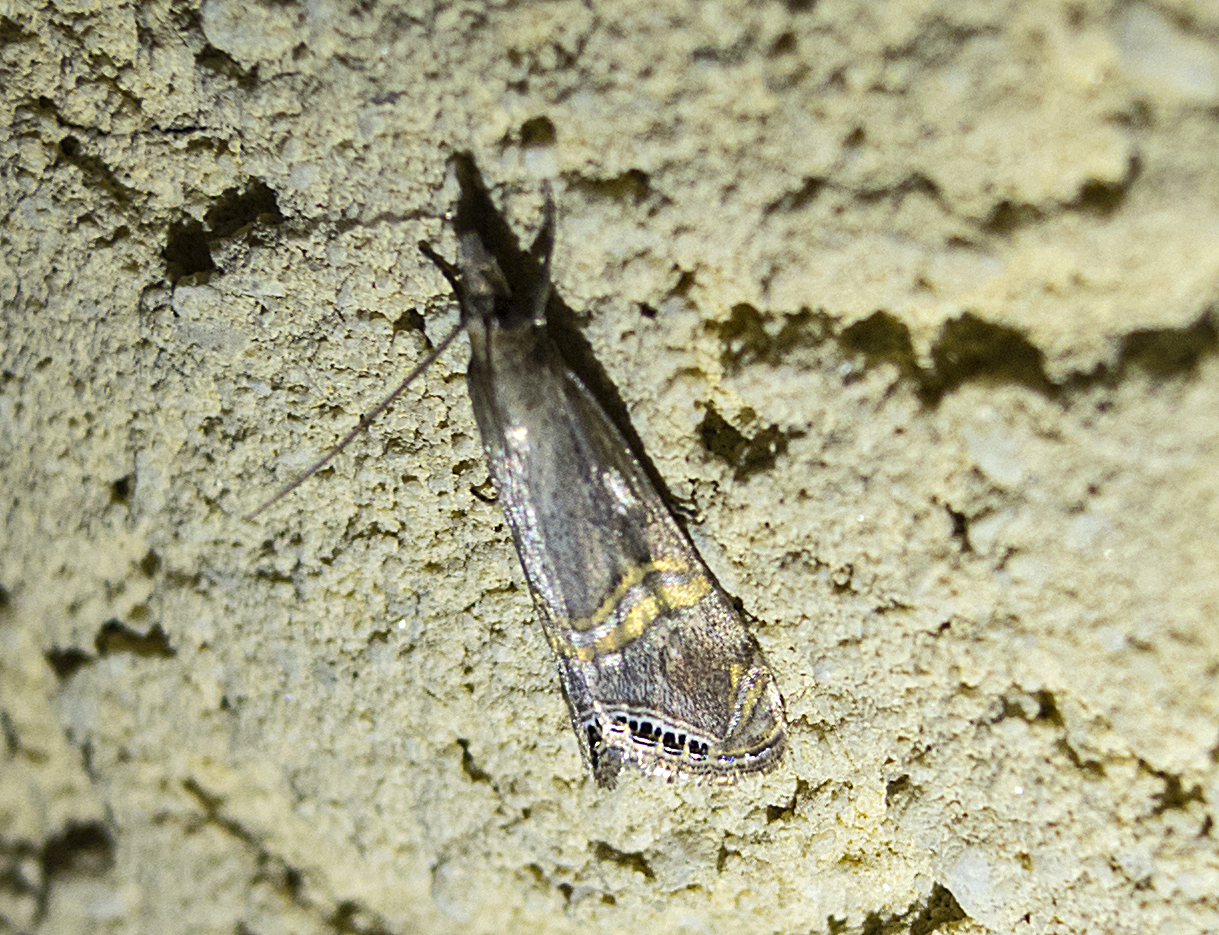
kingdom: Animalia
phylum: Arthropoda
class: Insecta
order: Lepidoptera
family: Crambidae
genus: Euchromius
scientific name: Euchromius ocellea
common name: Necklace veneer moth
